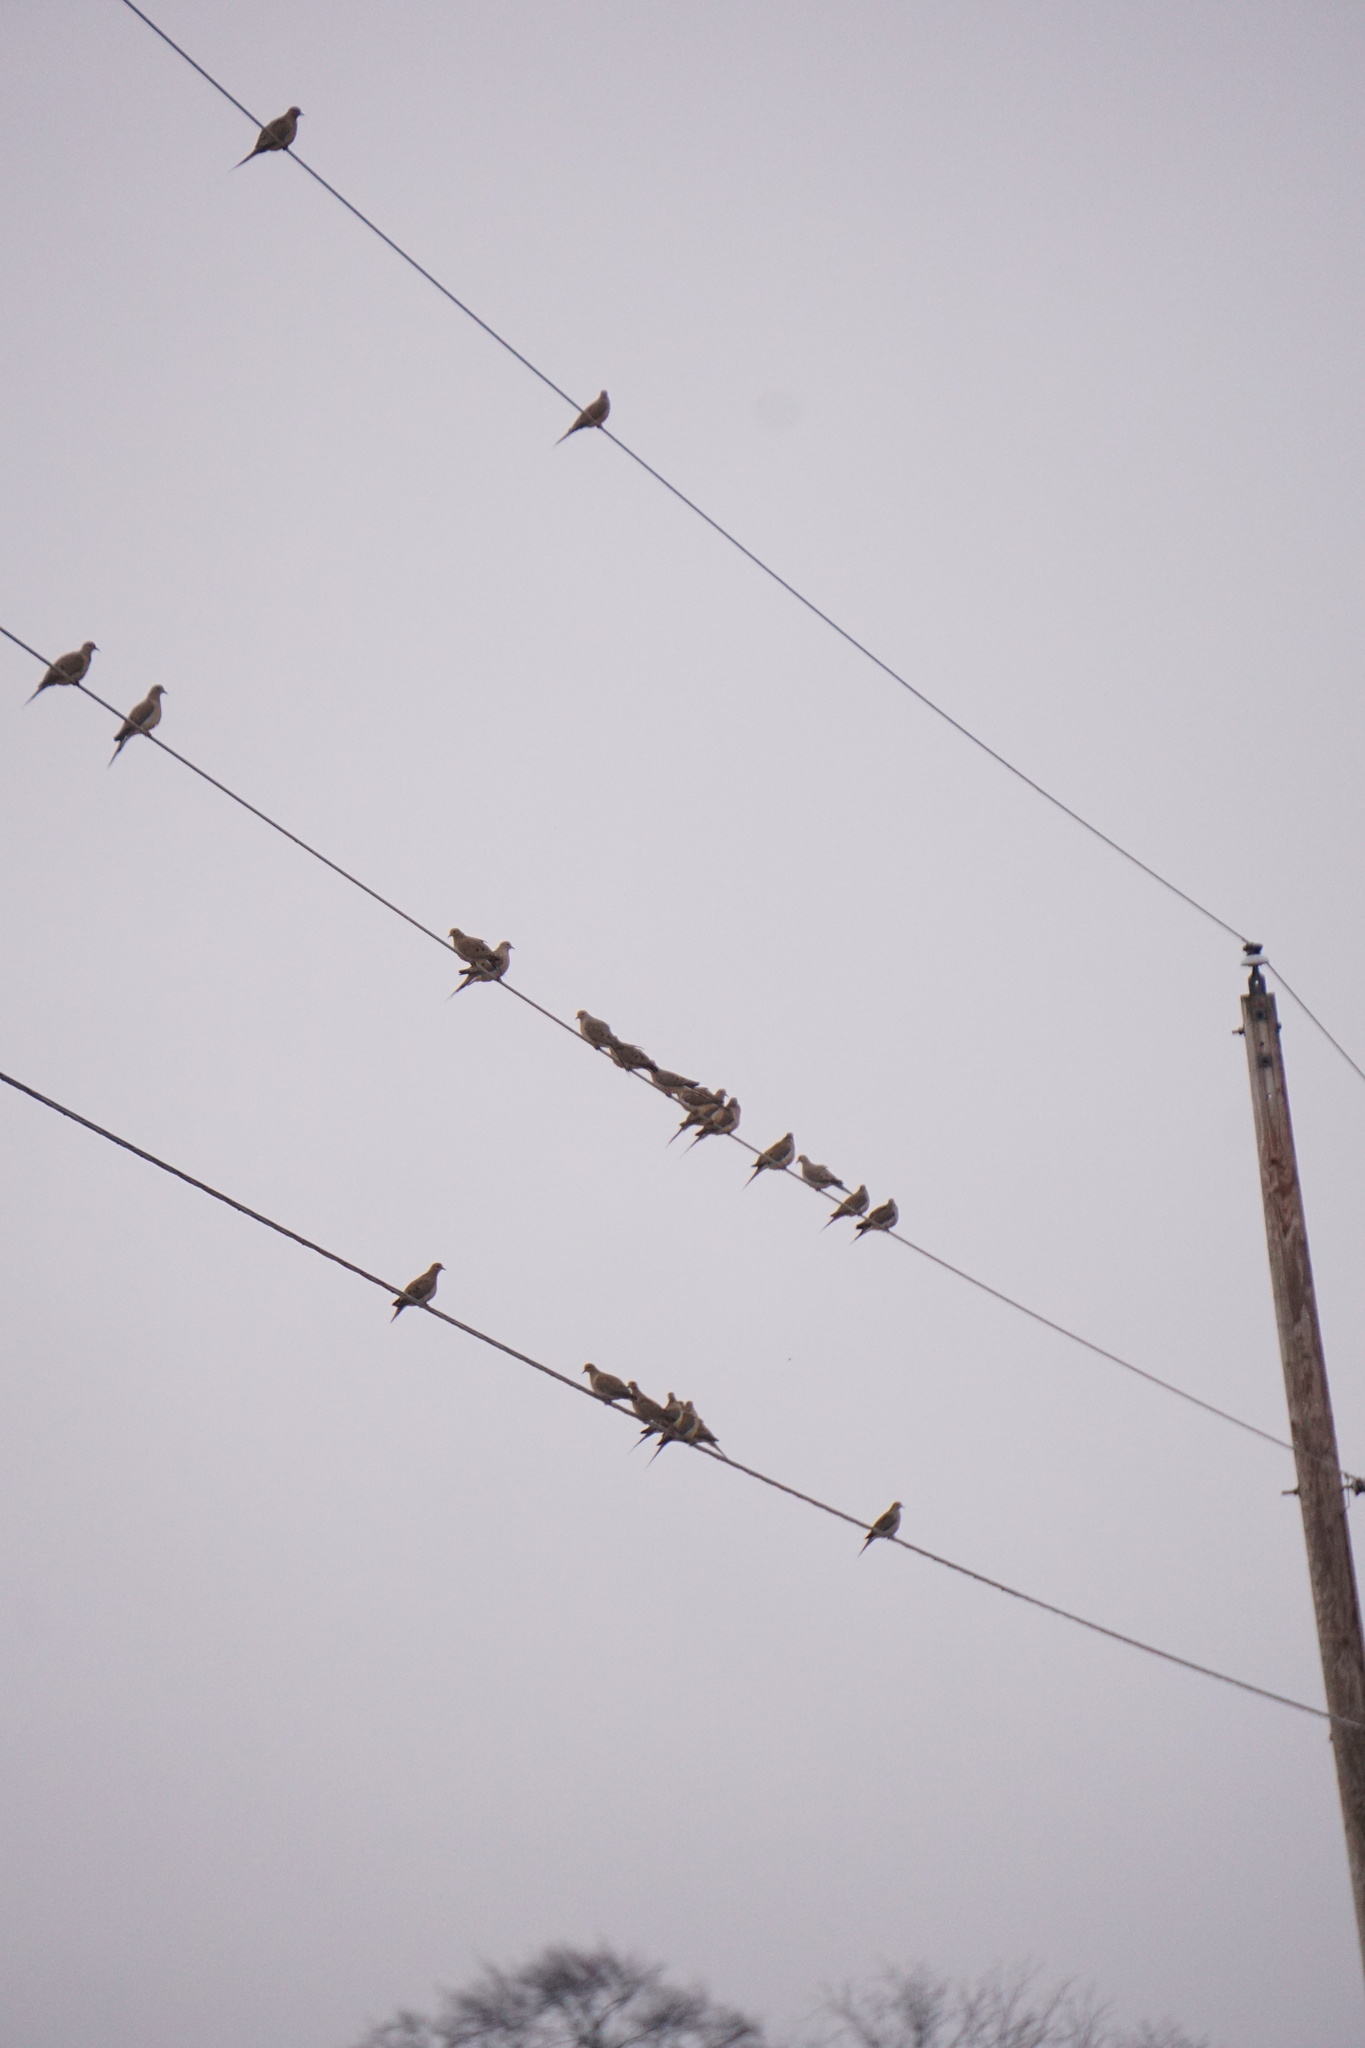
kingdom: Animalia
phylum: Chordata
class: Aves
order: Columbiformes
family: Columbidae
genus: Zenaida
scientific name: Zenaida macroura
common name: Mourning dove
